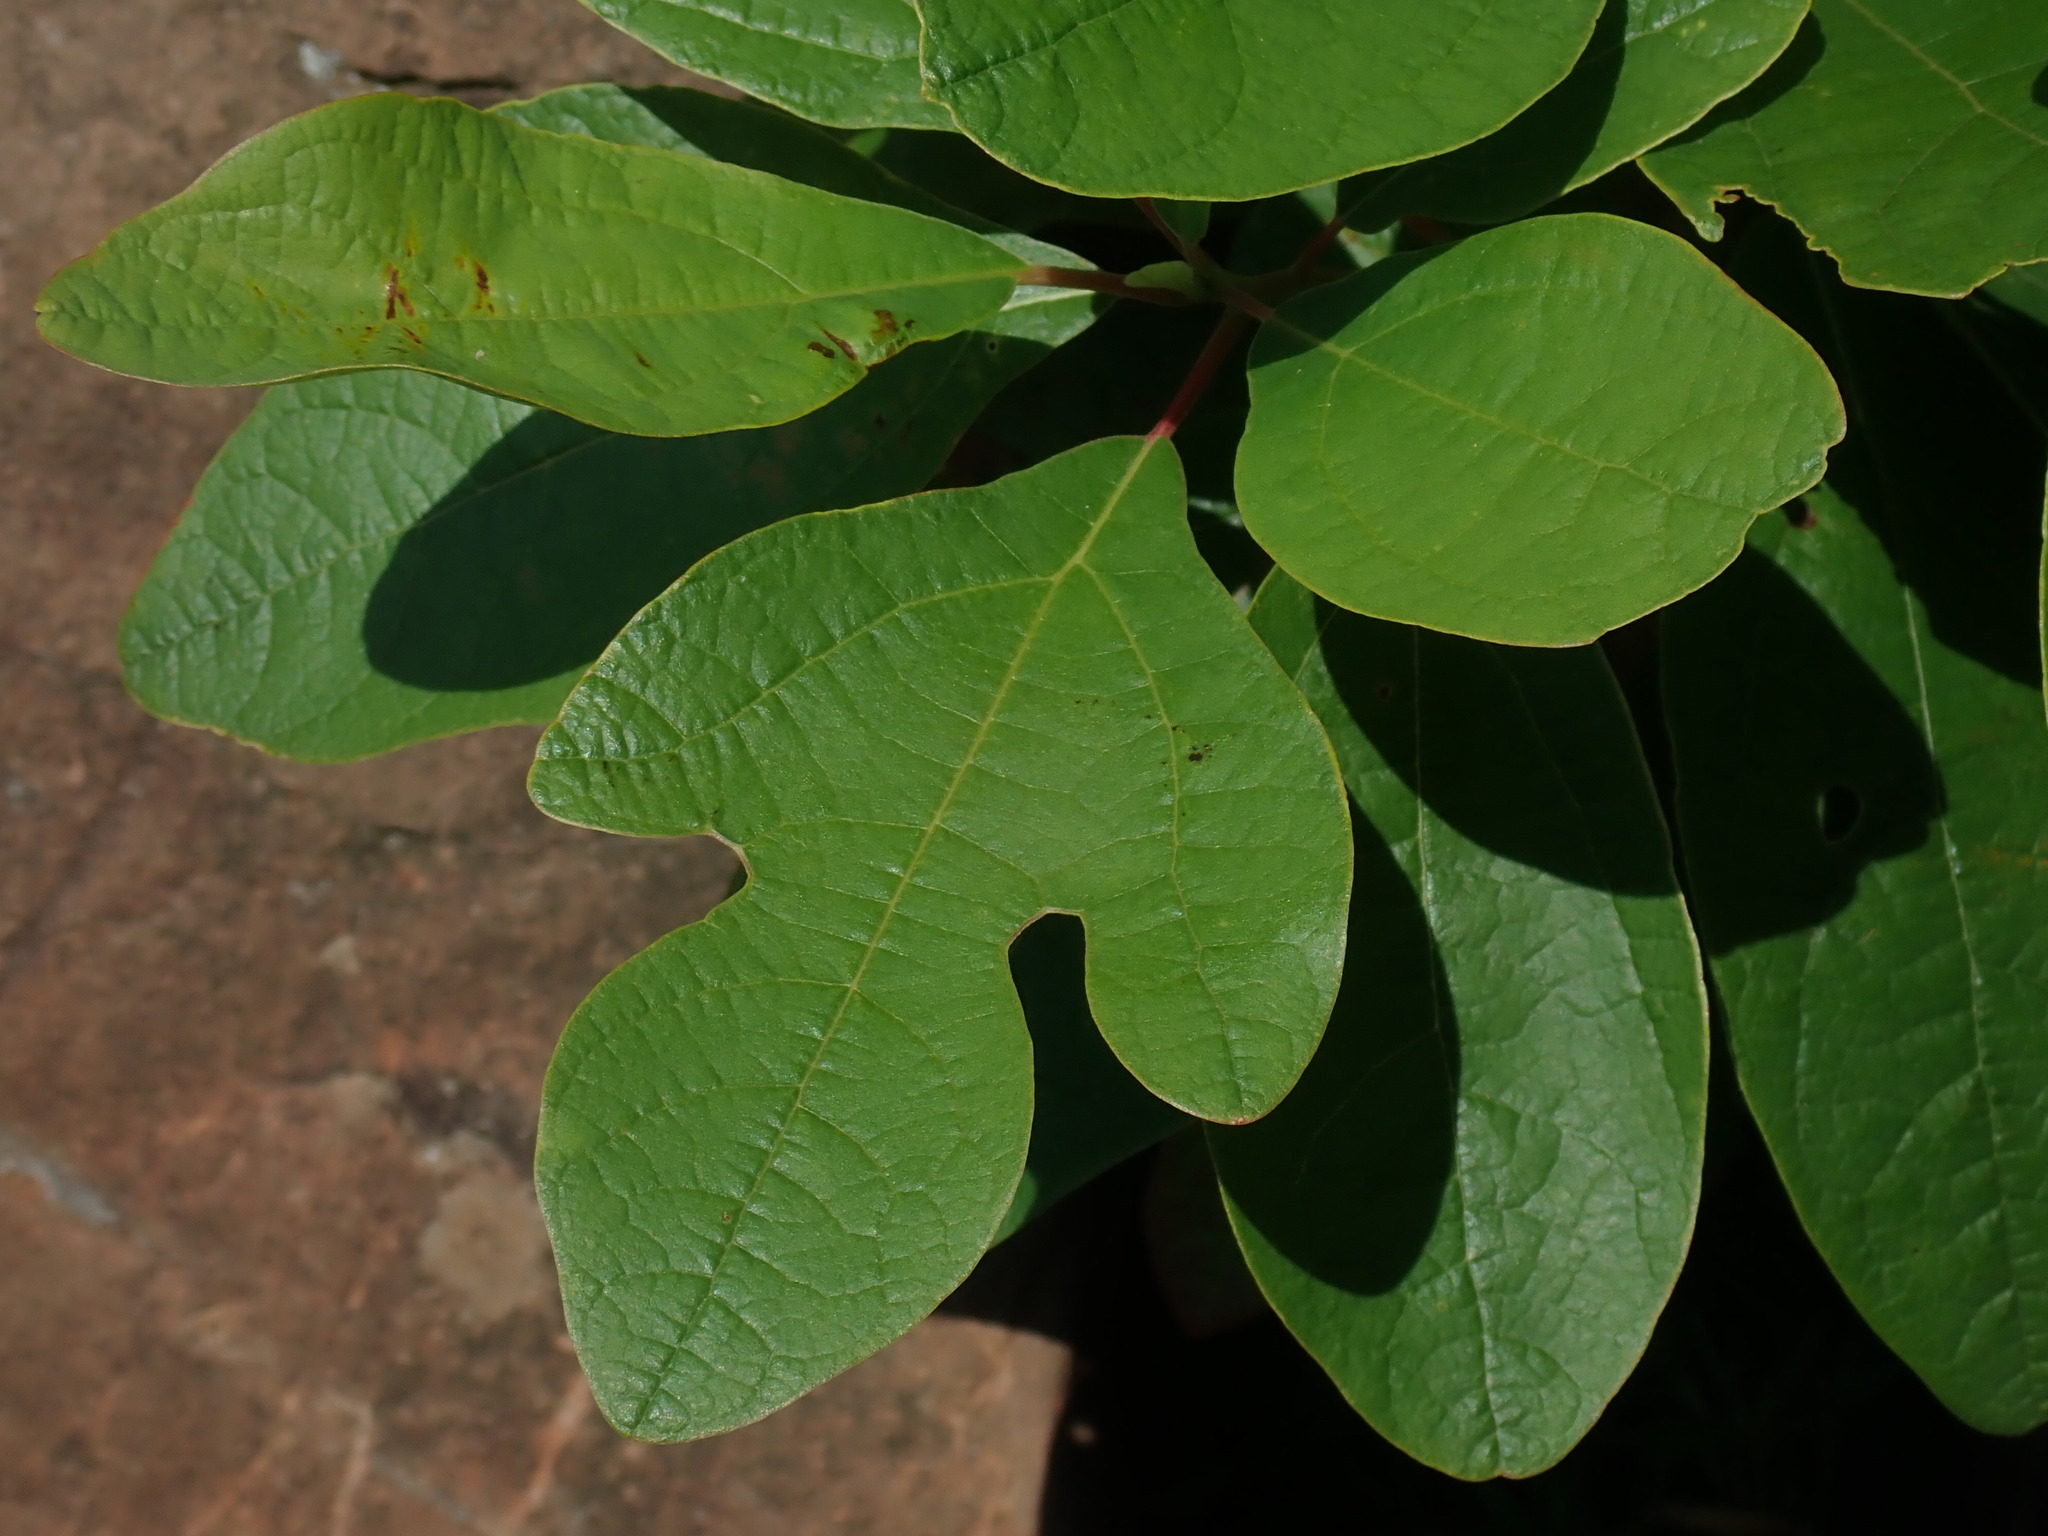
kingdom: Plantae
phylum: Tracheophyta
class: Magnoliopsida
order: Laurales
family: Lauraceae
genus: Sassafras
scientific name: Sassafras albidum
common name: Sassafras
